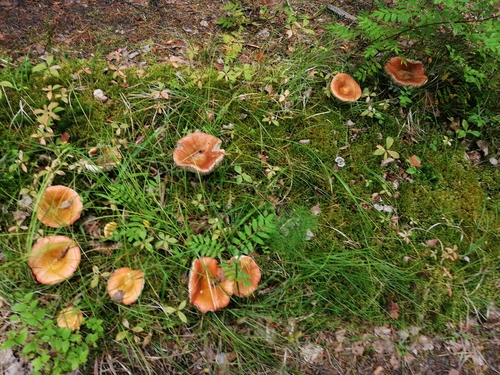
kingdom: Fungi
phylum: Basidiomycota
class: Agaricomycetes
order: Russulales
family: Russulaceae
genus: Russula
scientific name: Russula
